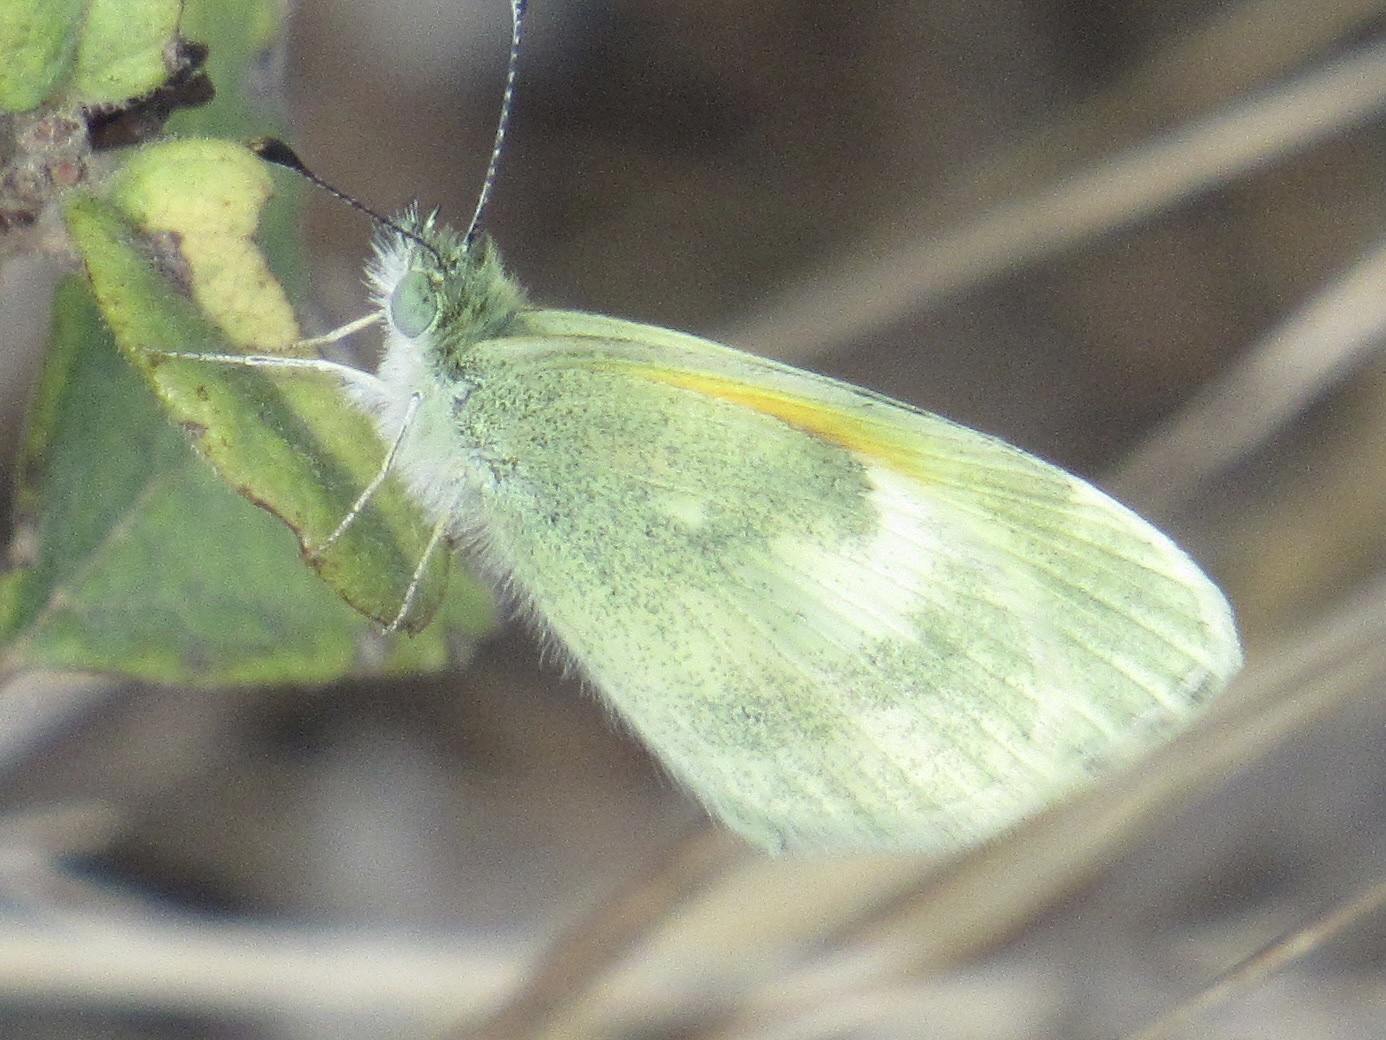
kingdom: Animalia
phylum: Arthropoda
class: Insecta
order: Lepidoptera
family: Pieridae
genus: Nathalis
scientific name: Nathalis iole
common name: Dainty sulphur
